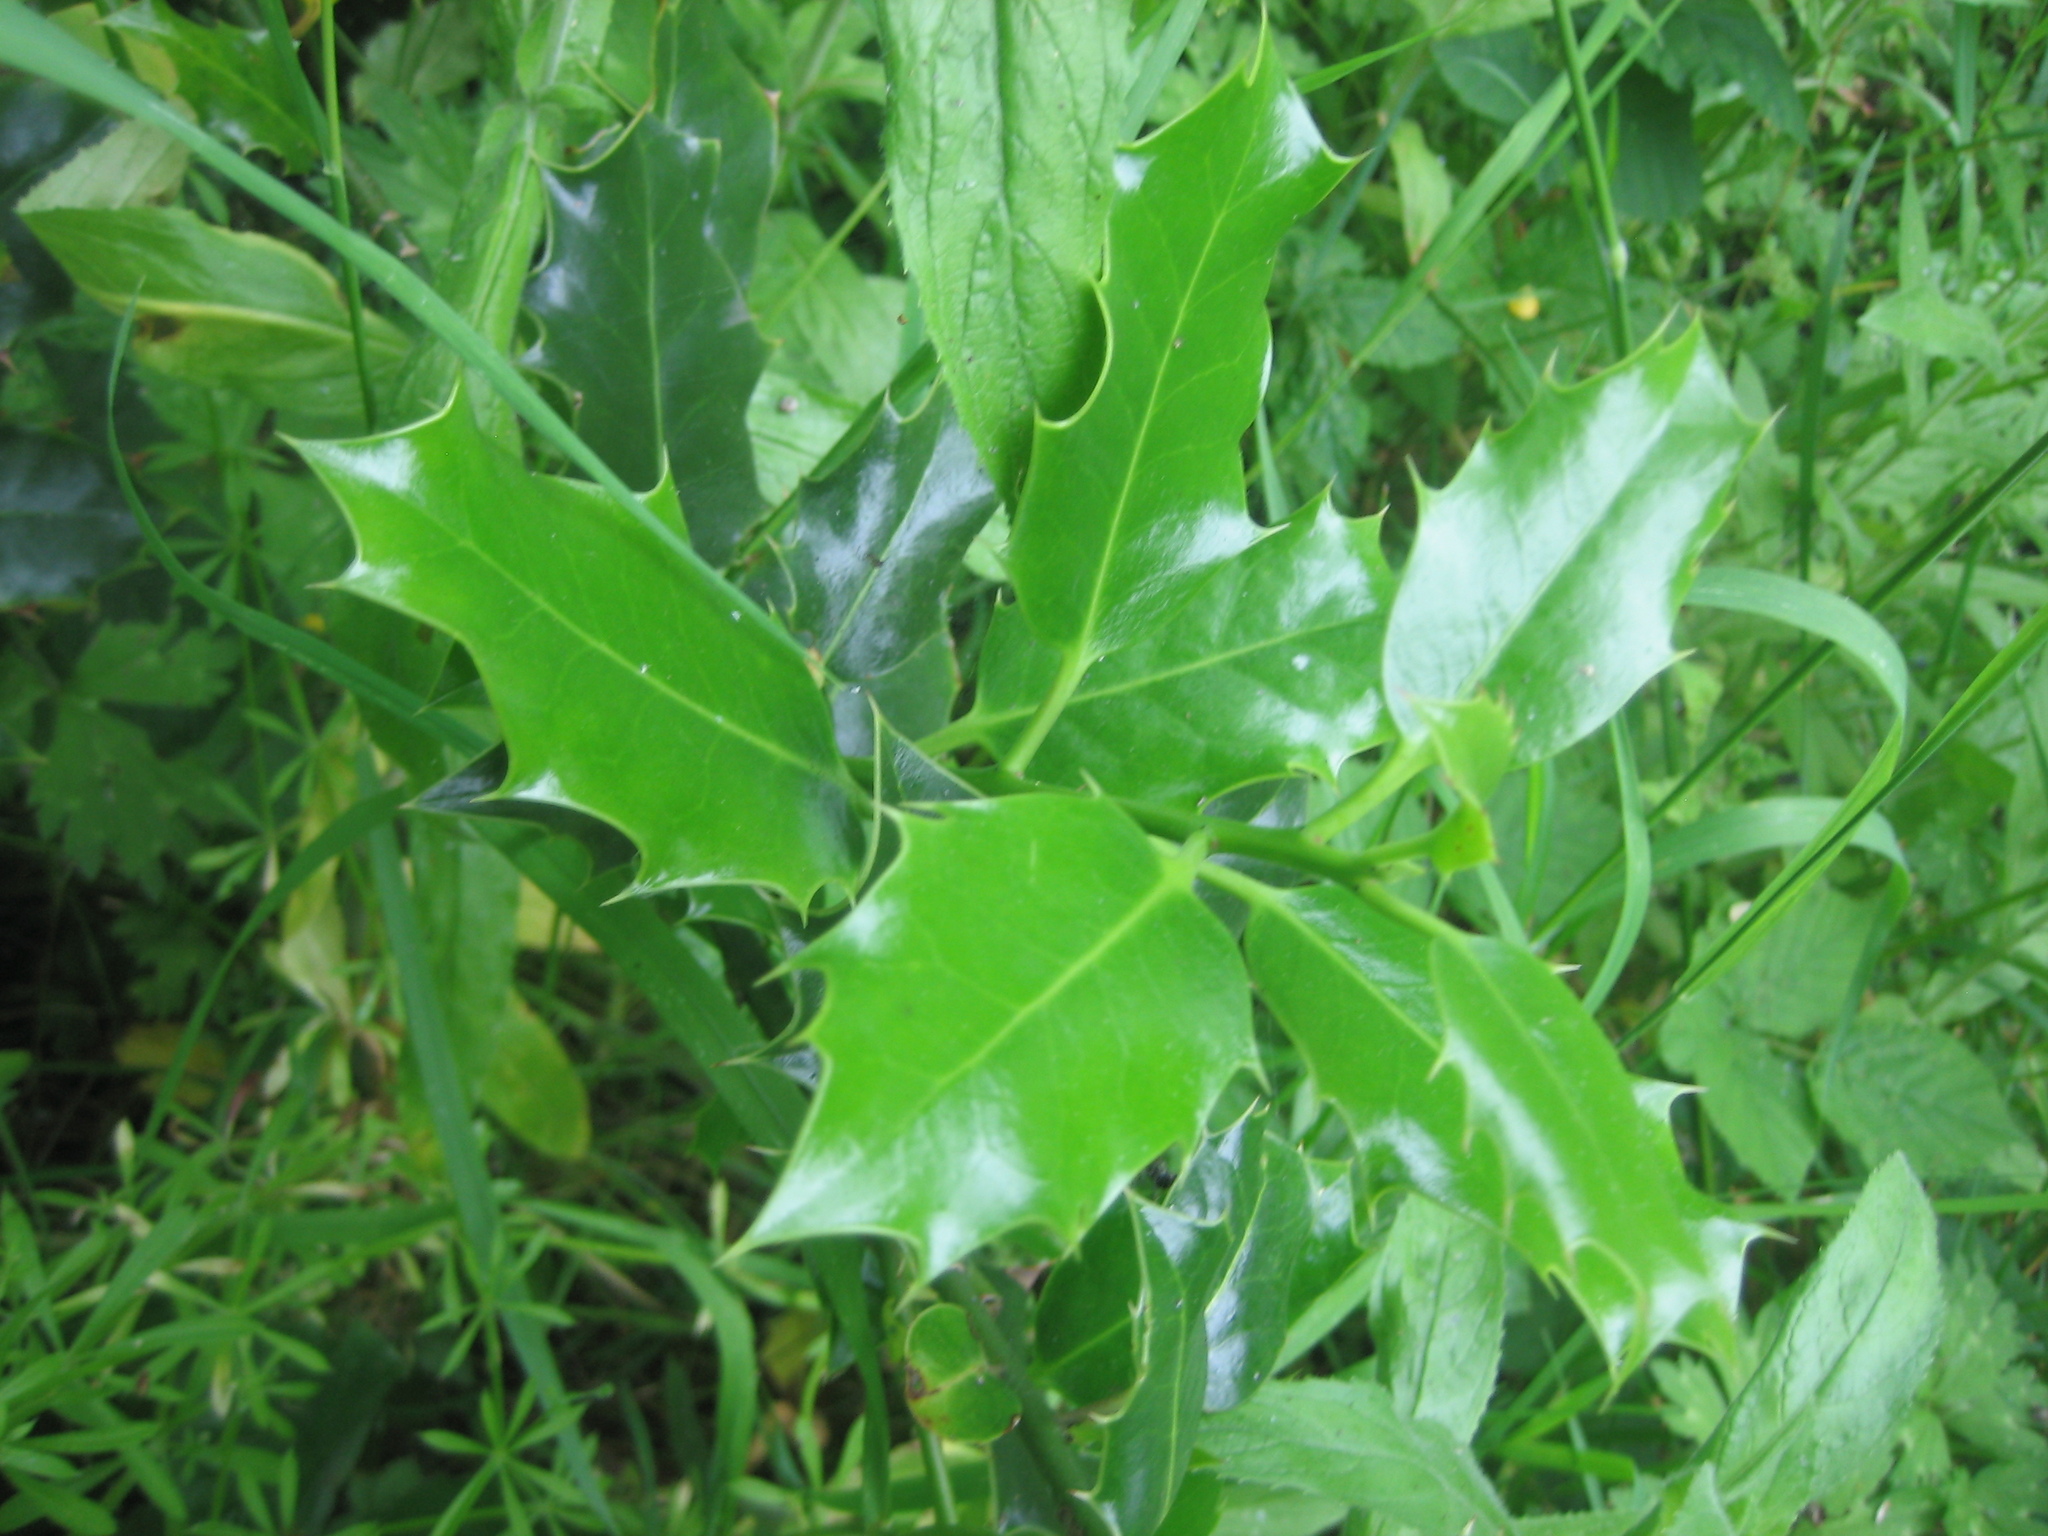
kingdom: Plantae
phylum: Tracheophyta
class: Magnoliopsida
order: Aquifoliales
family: Aquifoliaceae
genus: Ilex
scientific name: Ilex aquifolium
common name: English holly
